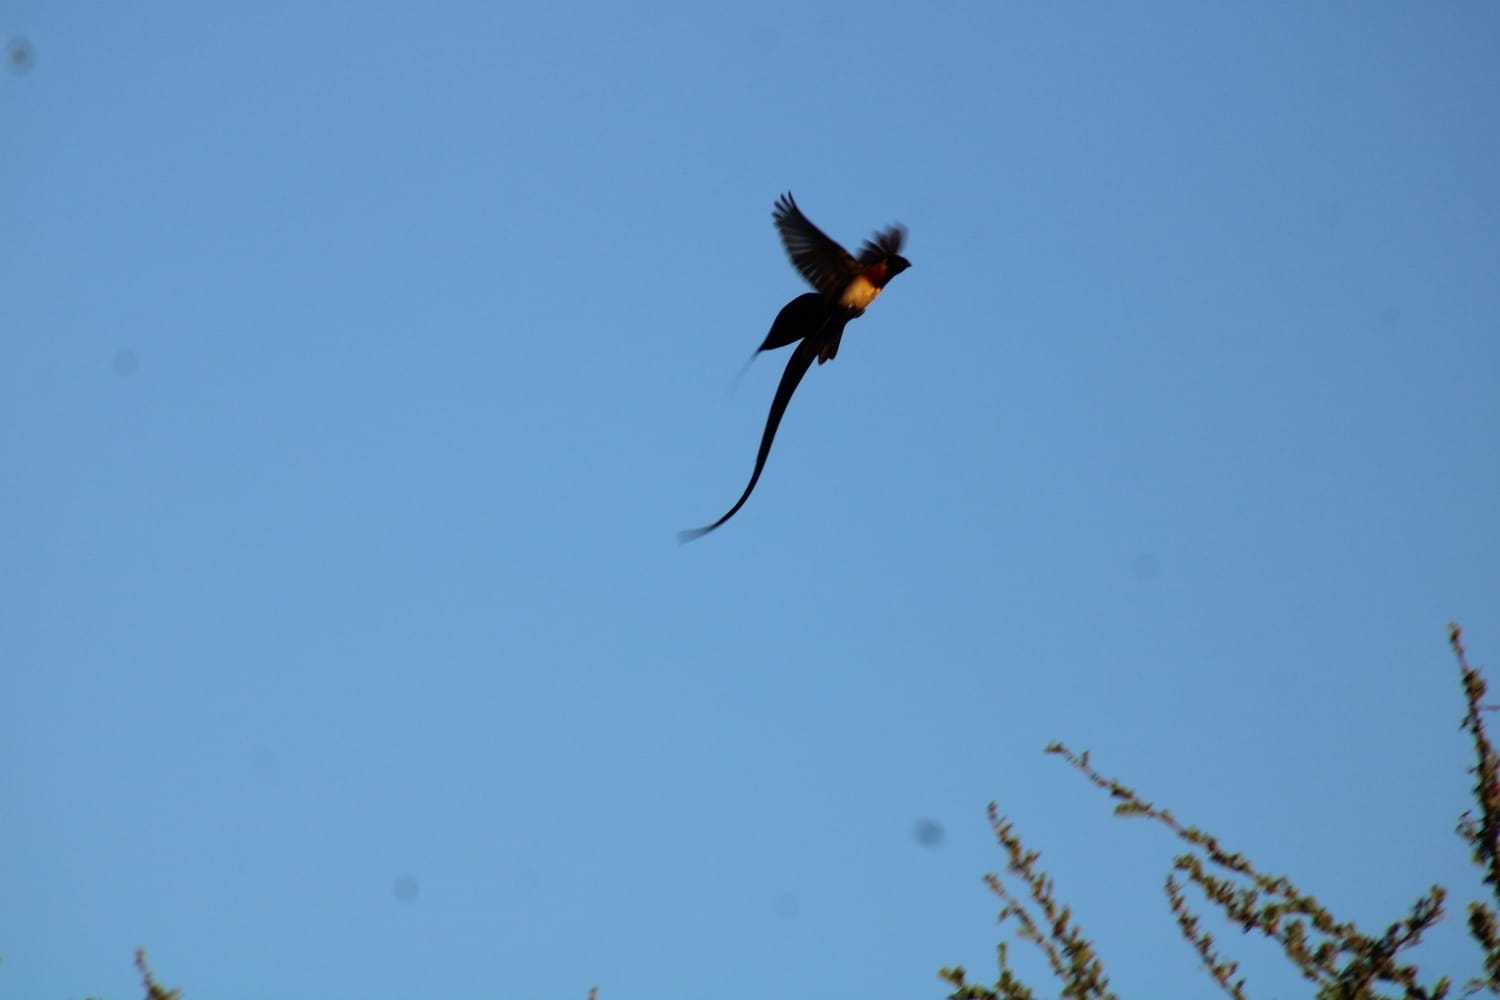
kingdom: Animalia
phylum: Chordata
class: Aves
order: Passeriformes
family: Viduidae
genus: Vidua
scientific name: Vidua paradisaea
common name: Long-tailed paradise whydah
